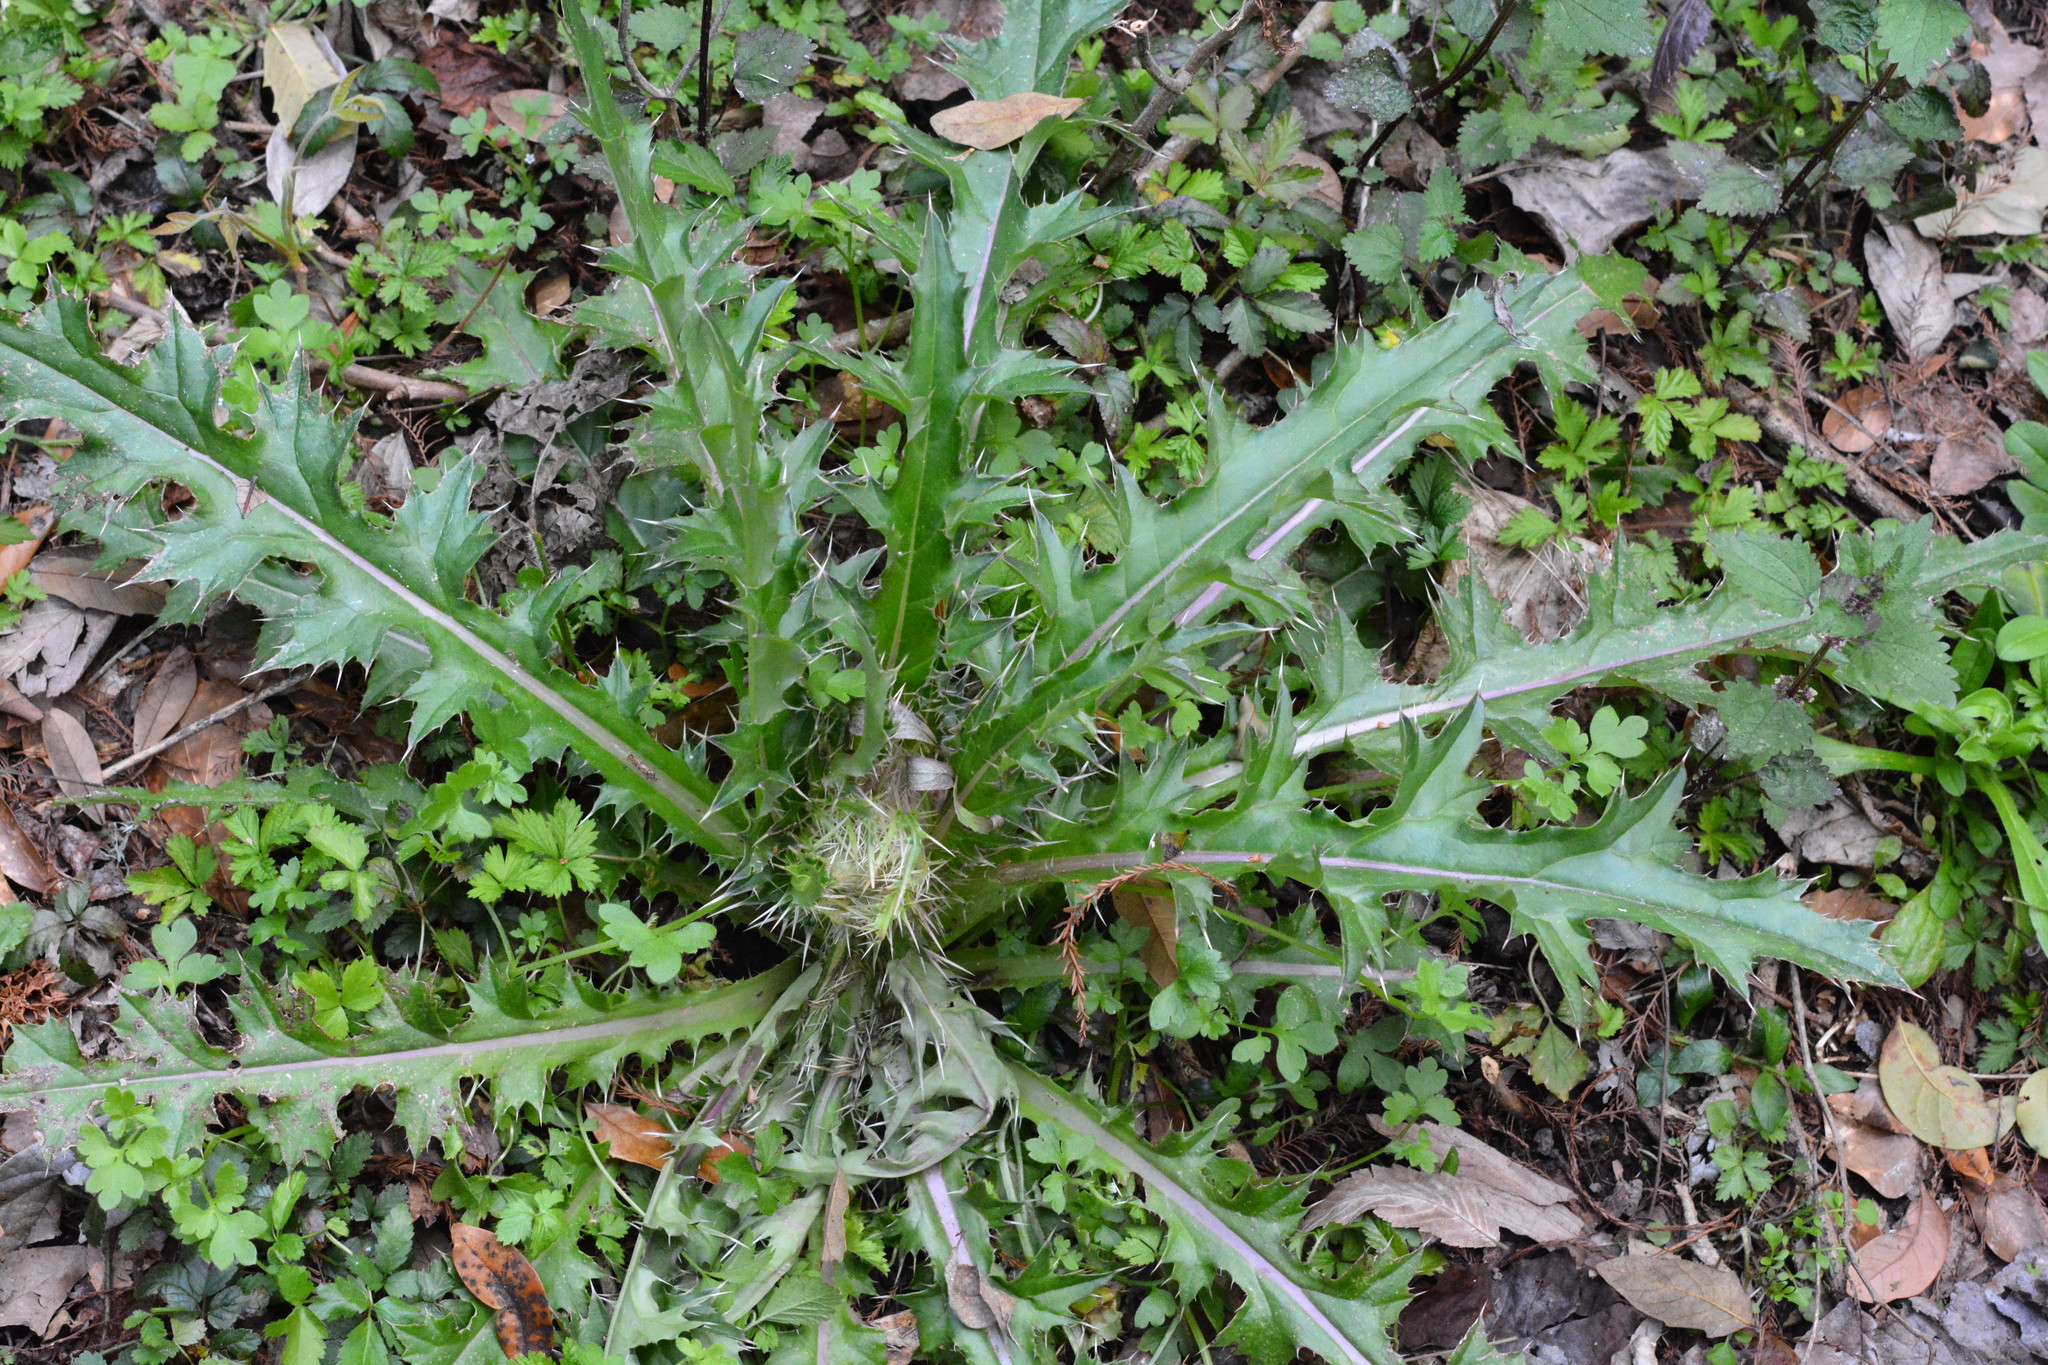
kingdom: Animalia
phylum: Arthropoda
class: Insecta
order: Hemiptera
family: Delphacidae
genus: Pissonotus
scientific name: Pissonotus nitens
